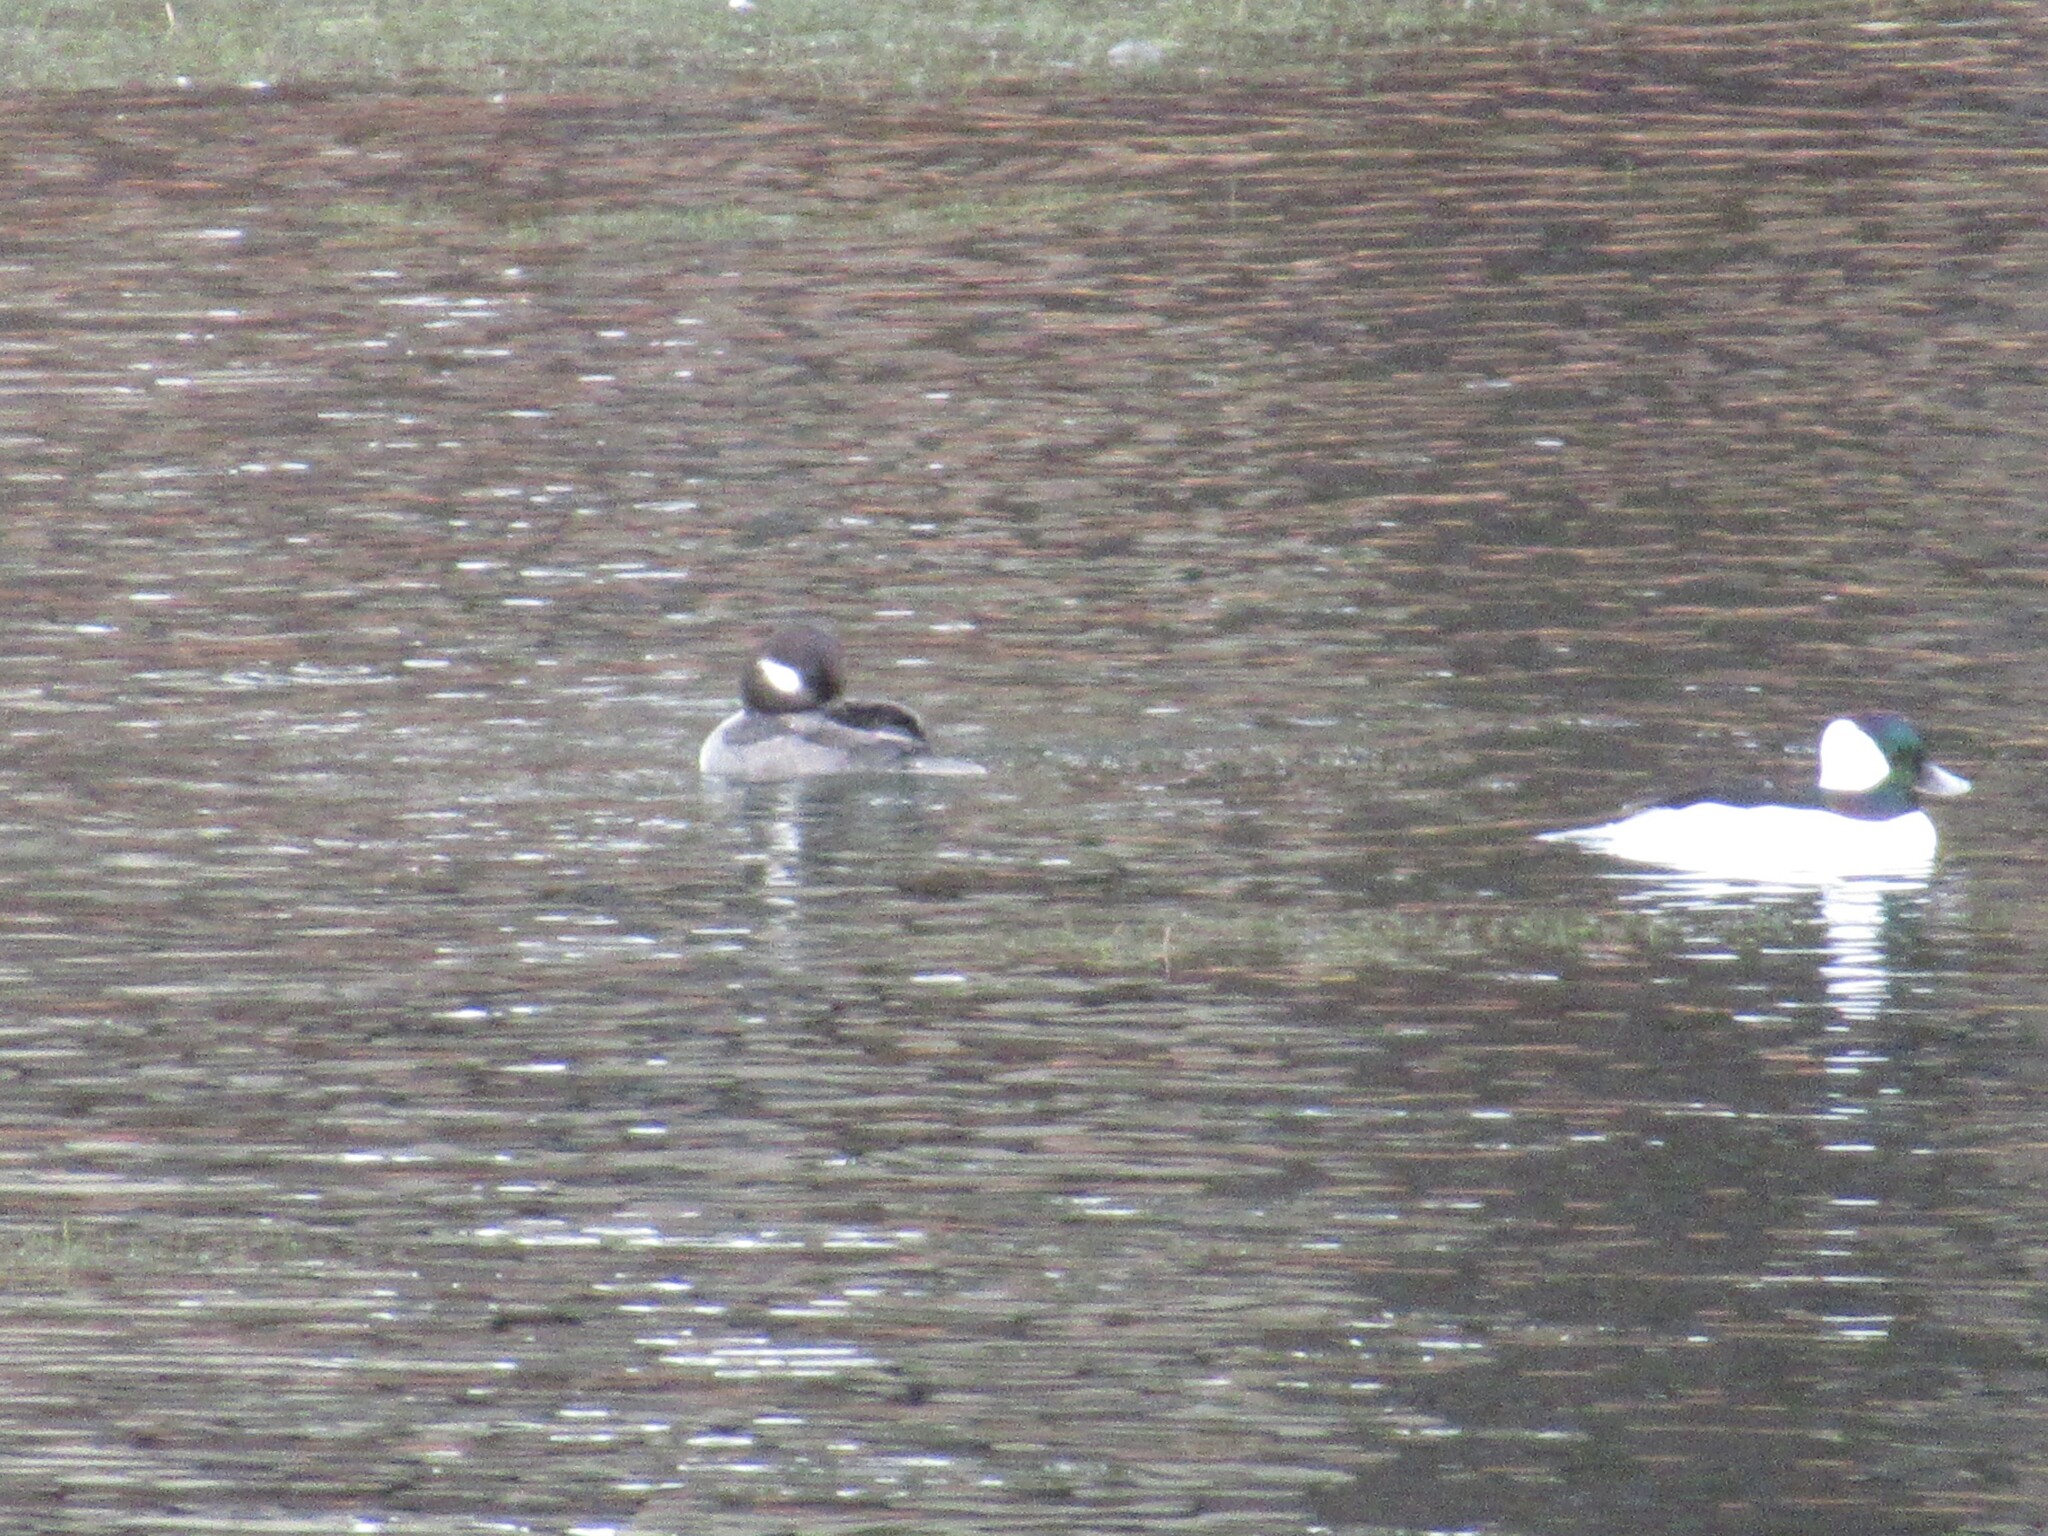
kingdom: Animalia
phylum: Chordata
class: Aves
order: Anseriformes
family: Anatidae
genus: Bucephala
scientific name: Bucephala albeola
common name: Bufflehead
